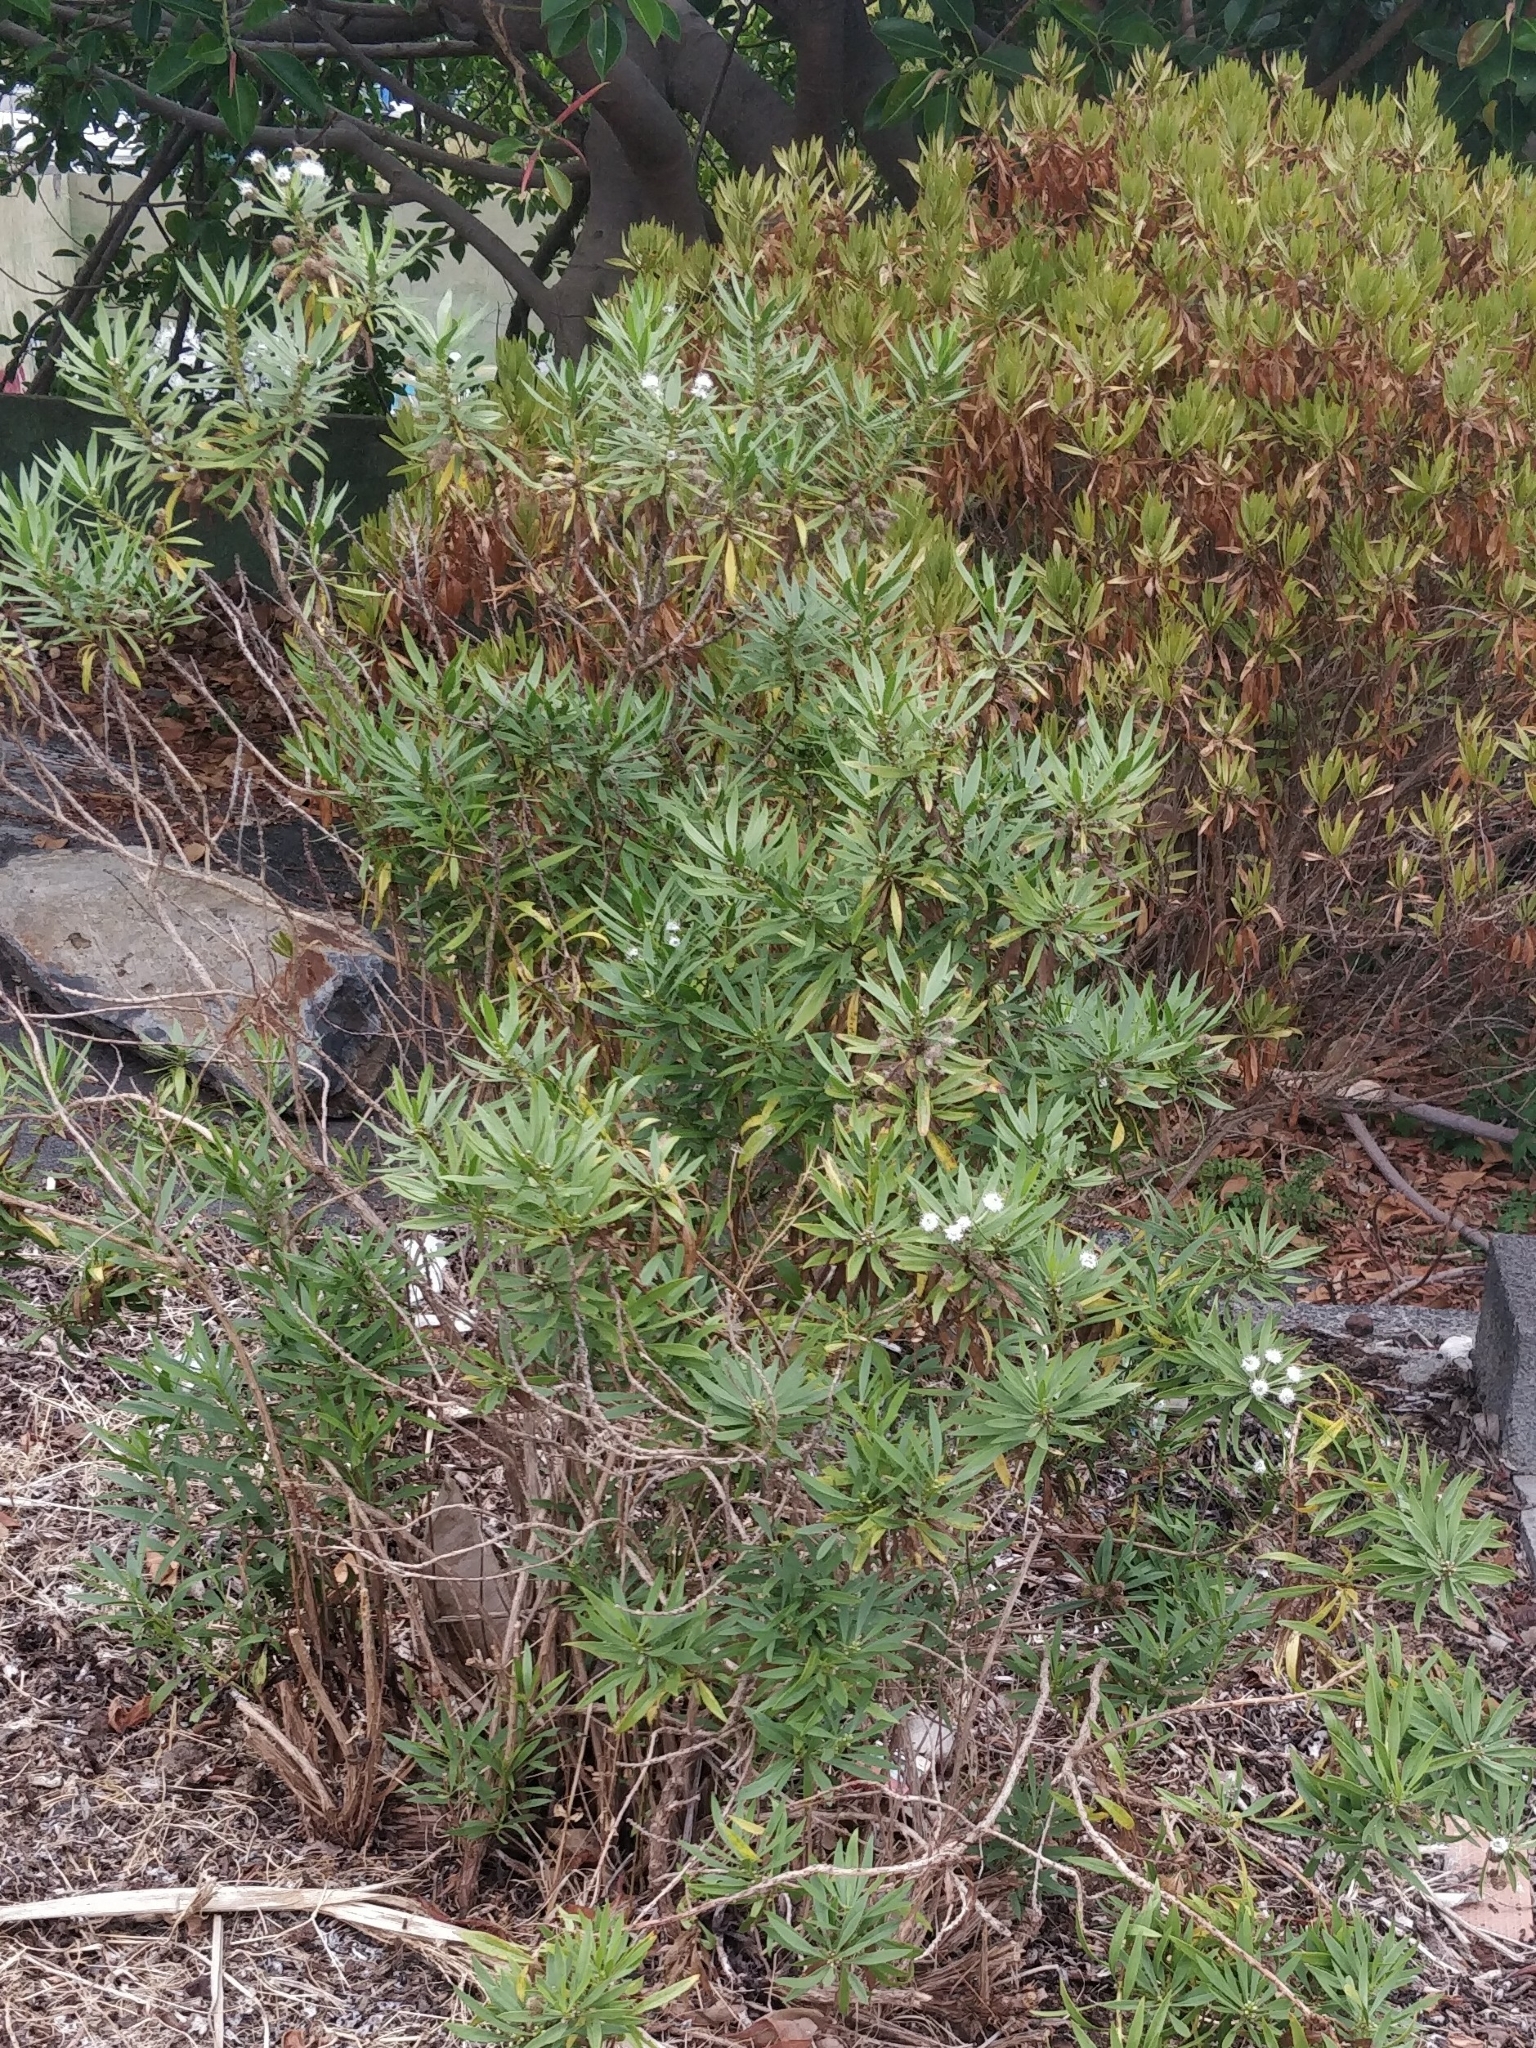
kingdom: Plantae
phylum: Tracheophyta
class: Magnoliopsida
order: Lamiales
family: Plantaginaceae
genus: Globularia
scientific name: Globularia salicina
